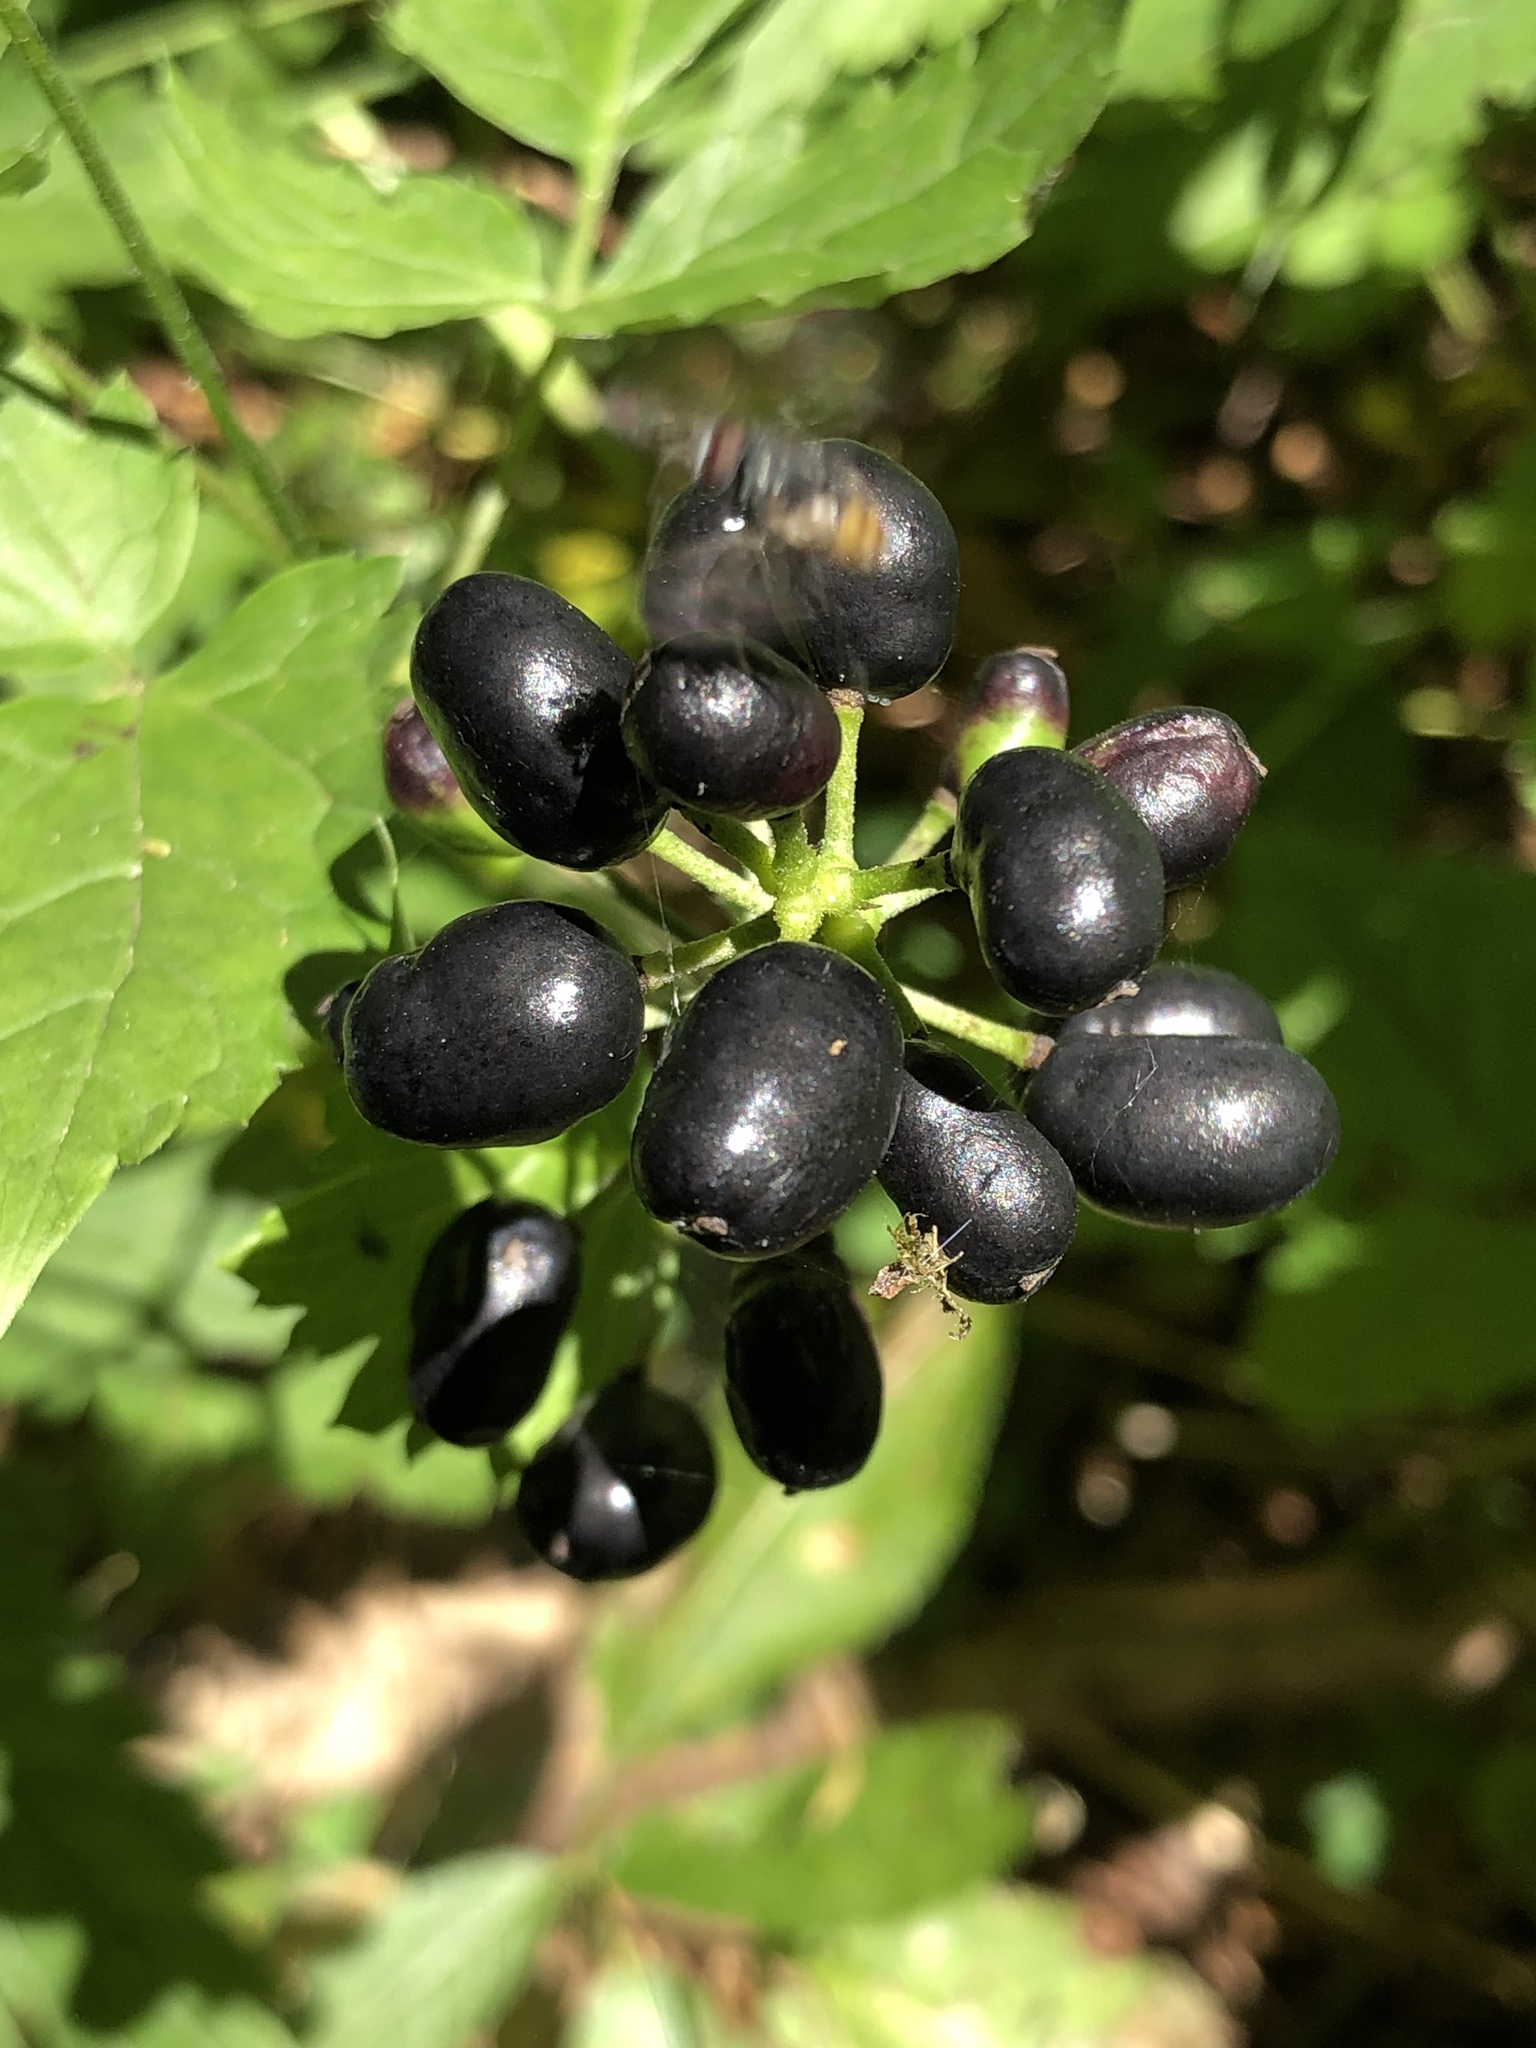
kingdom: Plantae
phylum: Tracheophyta
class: Magnoliopsida
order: Ranunculales
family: Ranunculaceae
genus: Actaea
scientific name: Actaea spicata
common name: Baneberry
